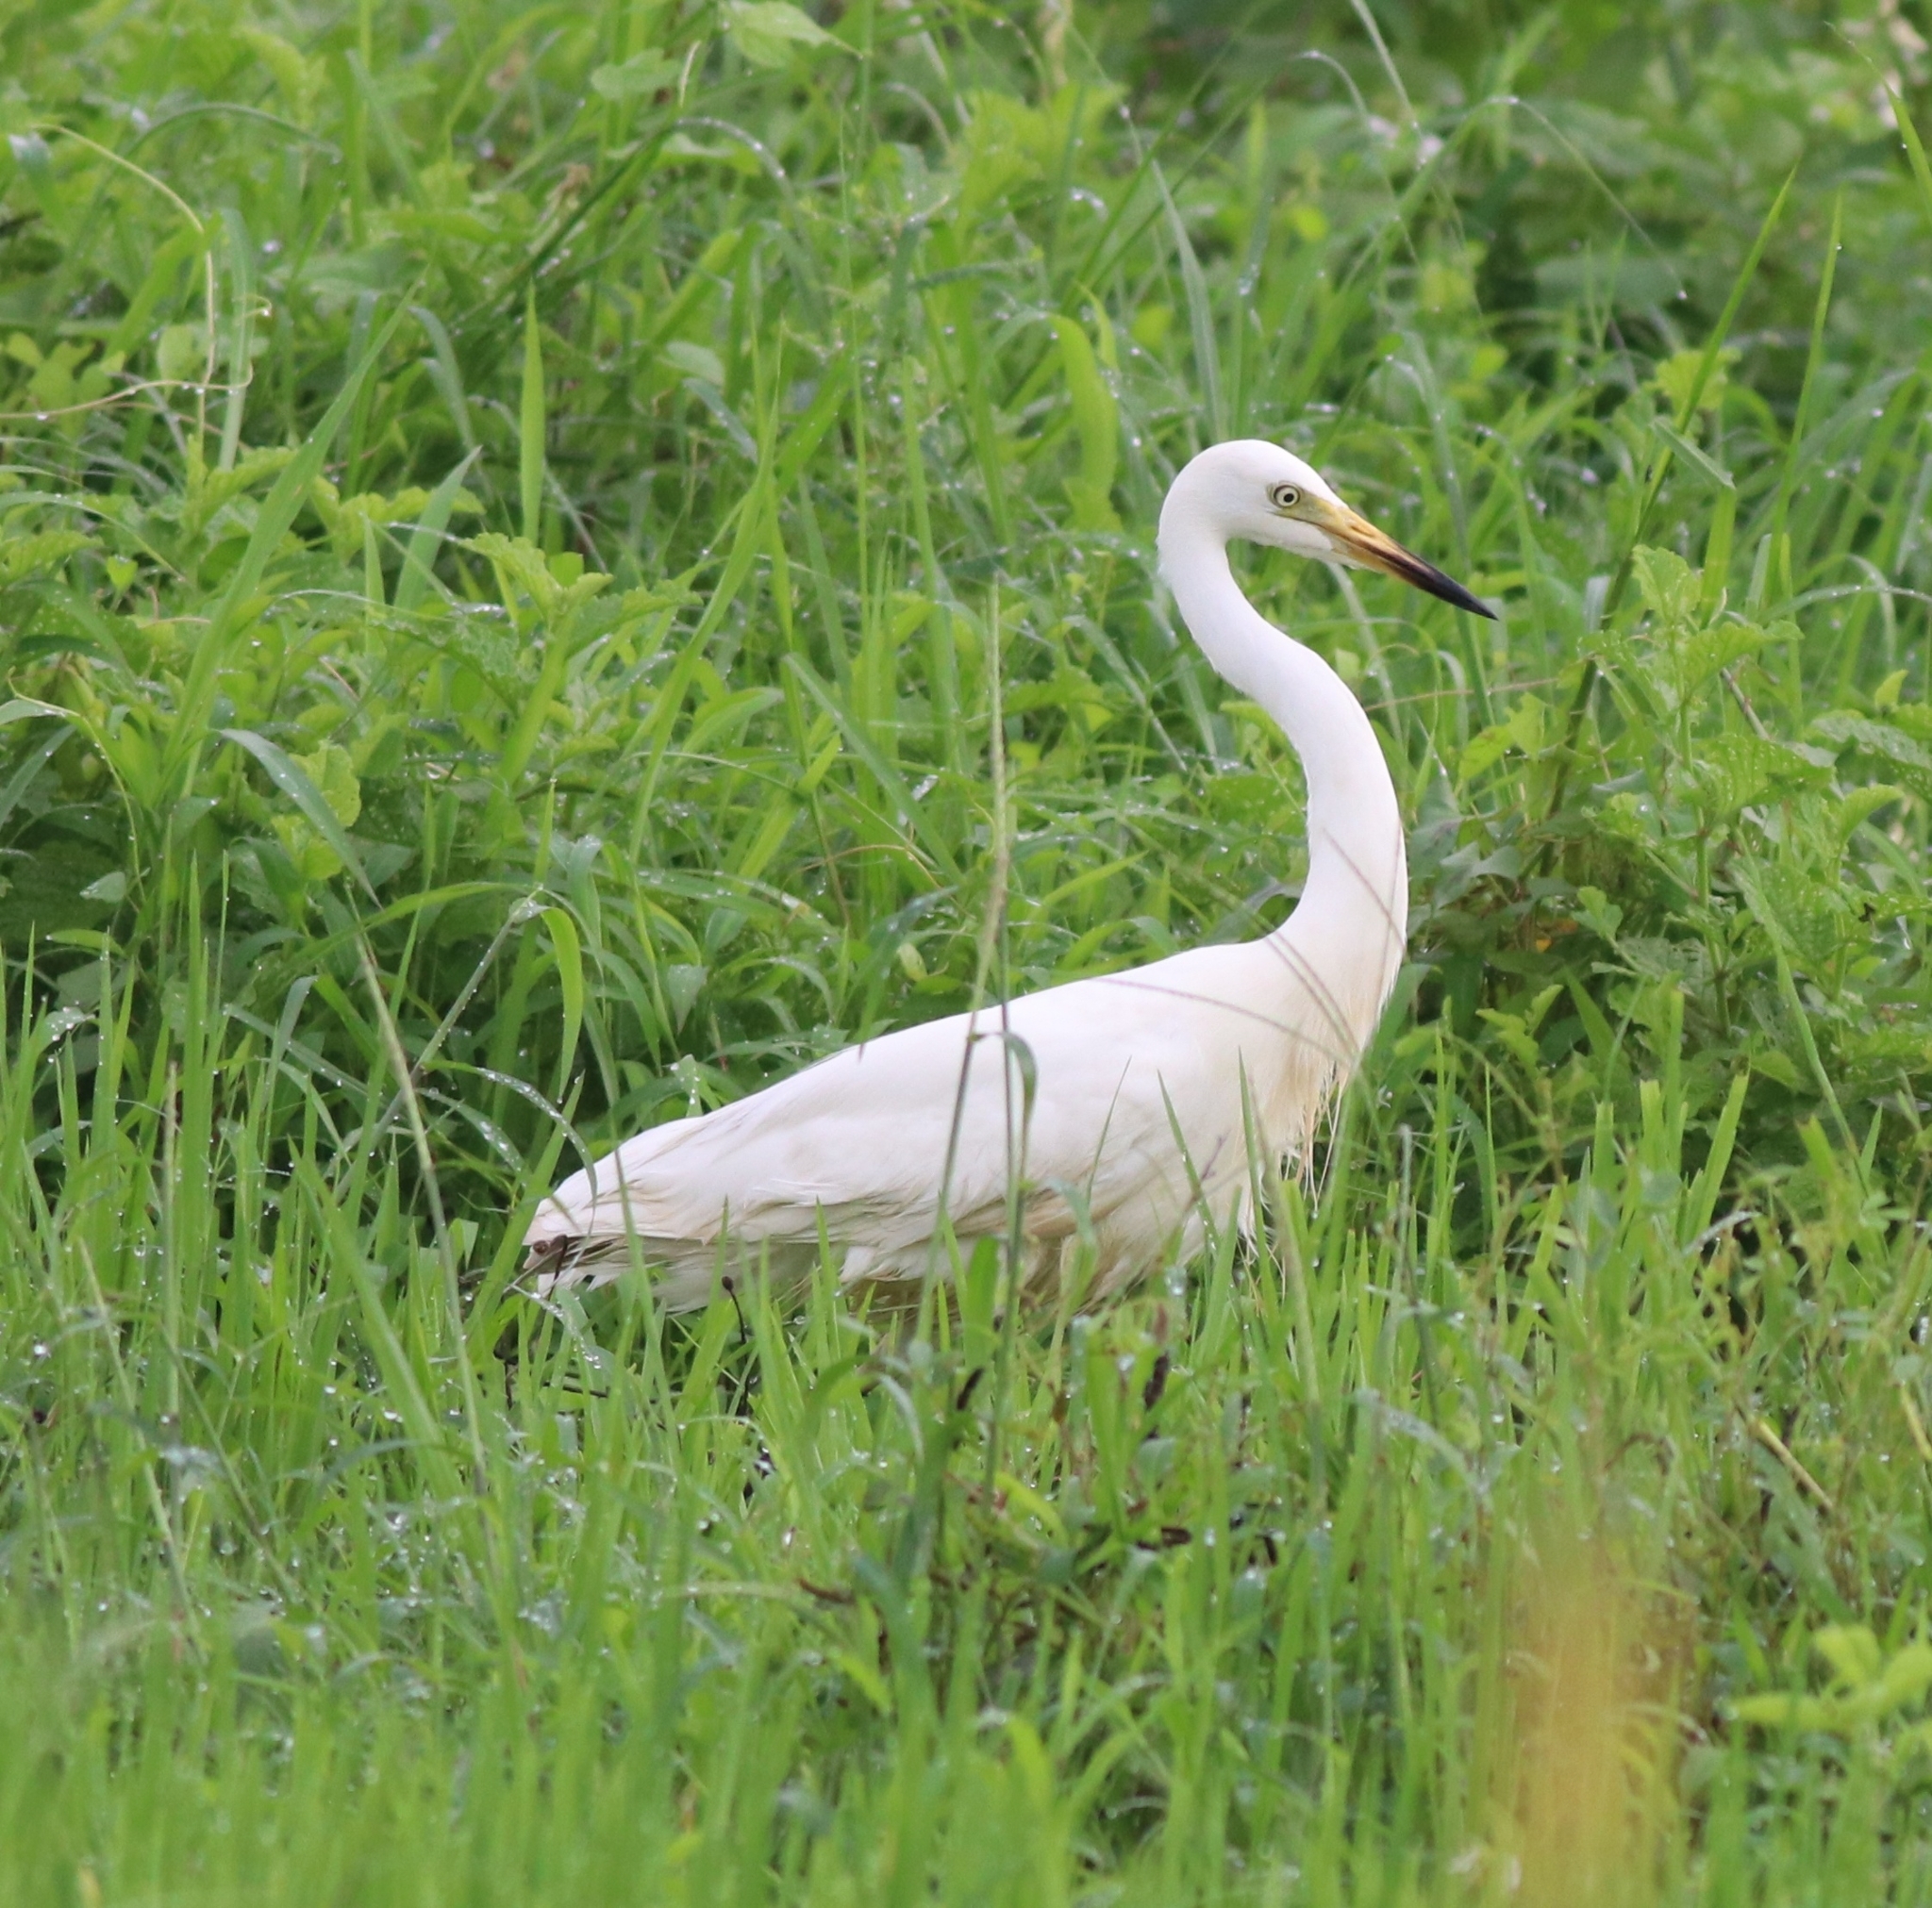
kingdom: Animalia
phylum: Chordata
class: Aves
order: Pelecaniformes
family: Ardeidae
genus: Egretta
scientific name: Egretta intermedia
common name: Intermediate egret
